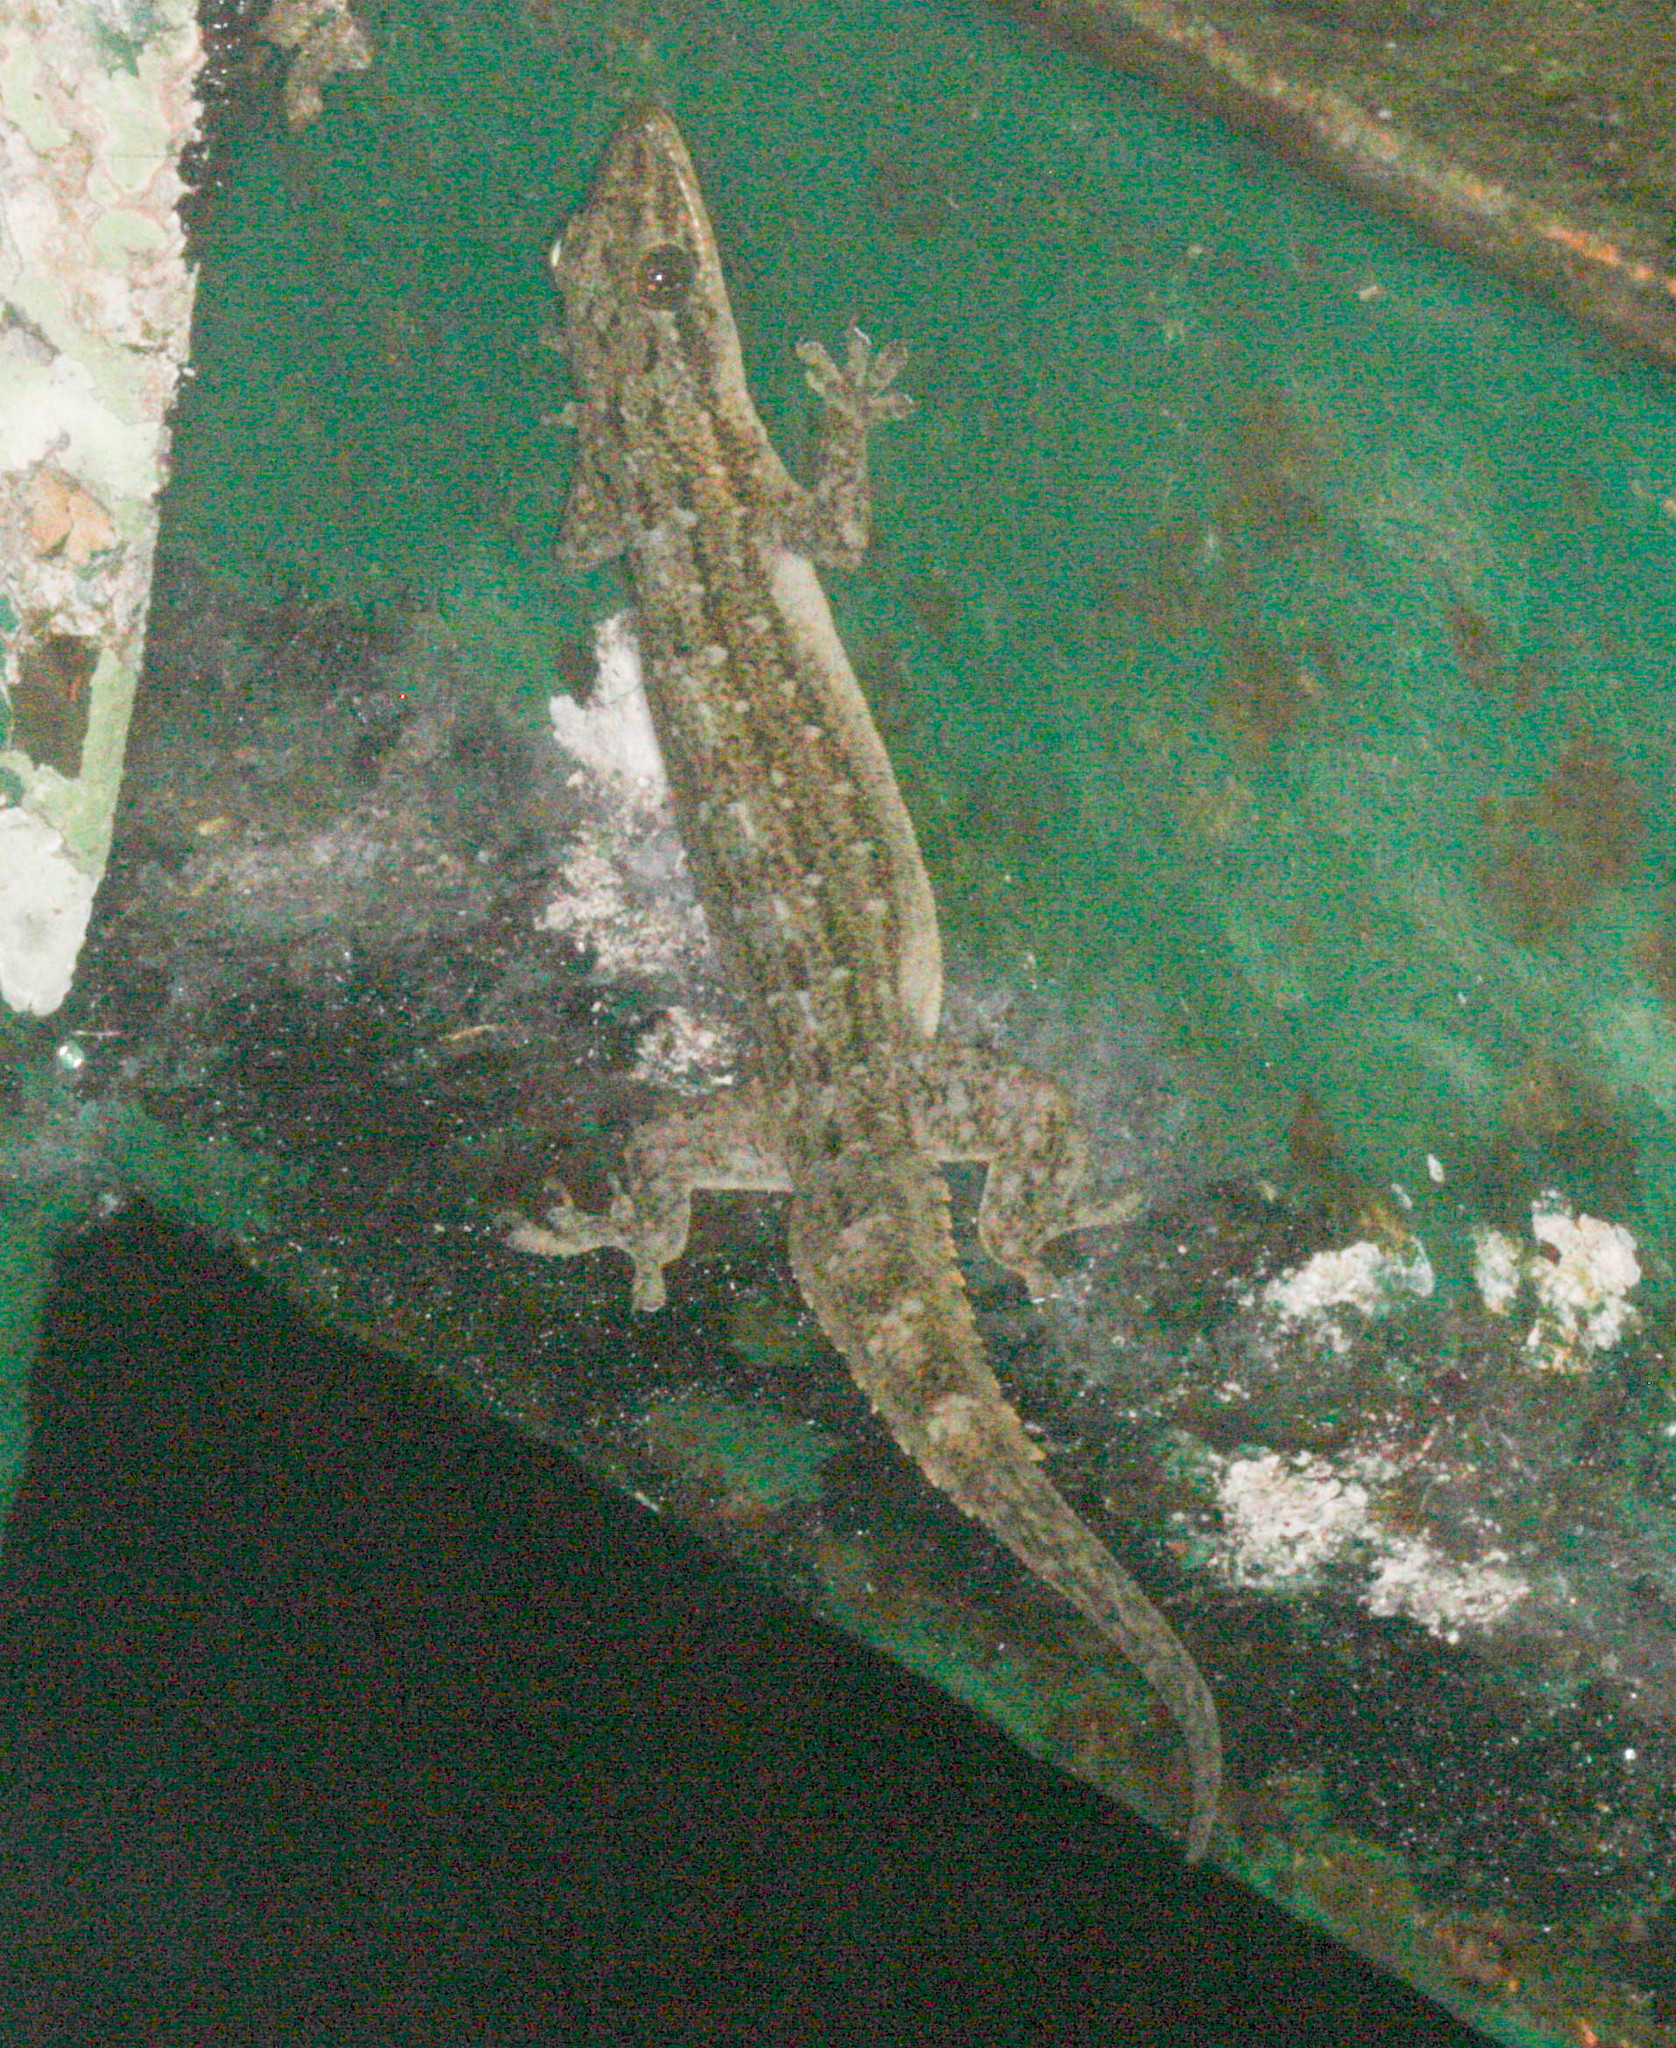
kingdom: Animalia
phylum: Chordata
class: Squamata
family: Gekkonidae
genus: Hemidactylus
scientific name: Hemidactylus garnotii
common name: Indo-pacific gecko
